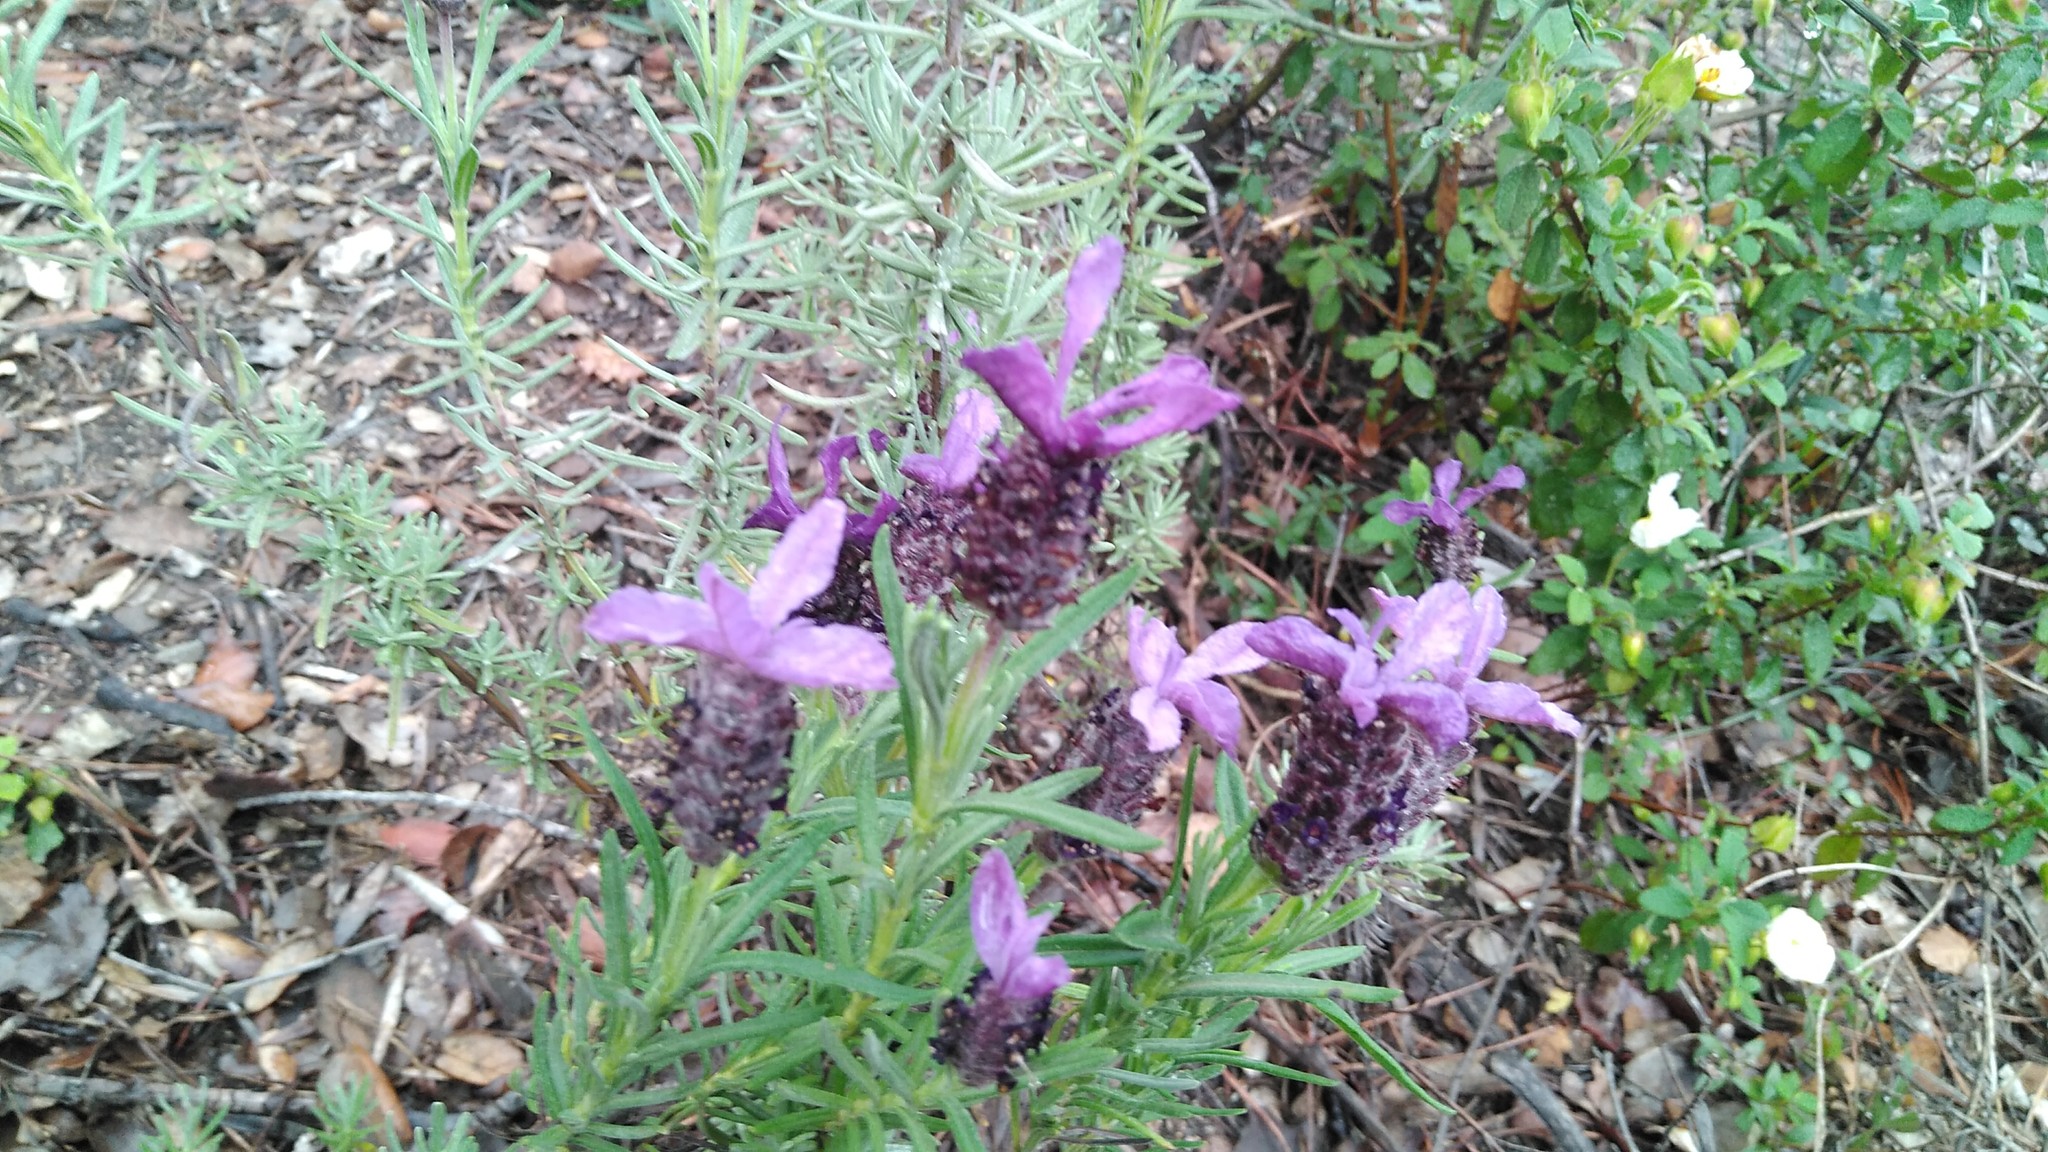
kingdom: Plantae
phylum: Tracheophyta
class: Magnoliopsida
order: Lamiales
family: Lamiaceae
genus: Lavandula
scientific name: Lavandula stoechas
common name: French lavender
